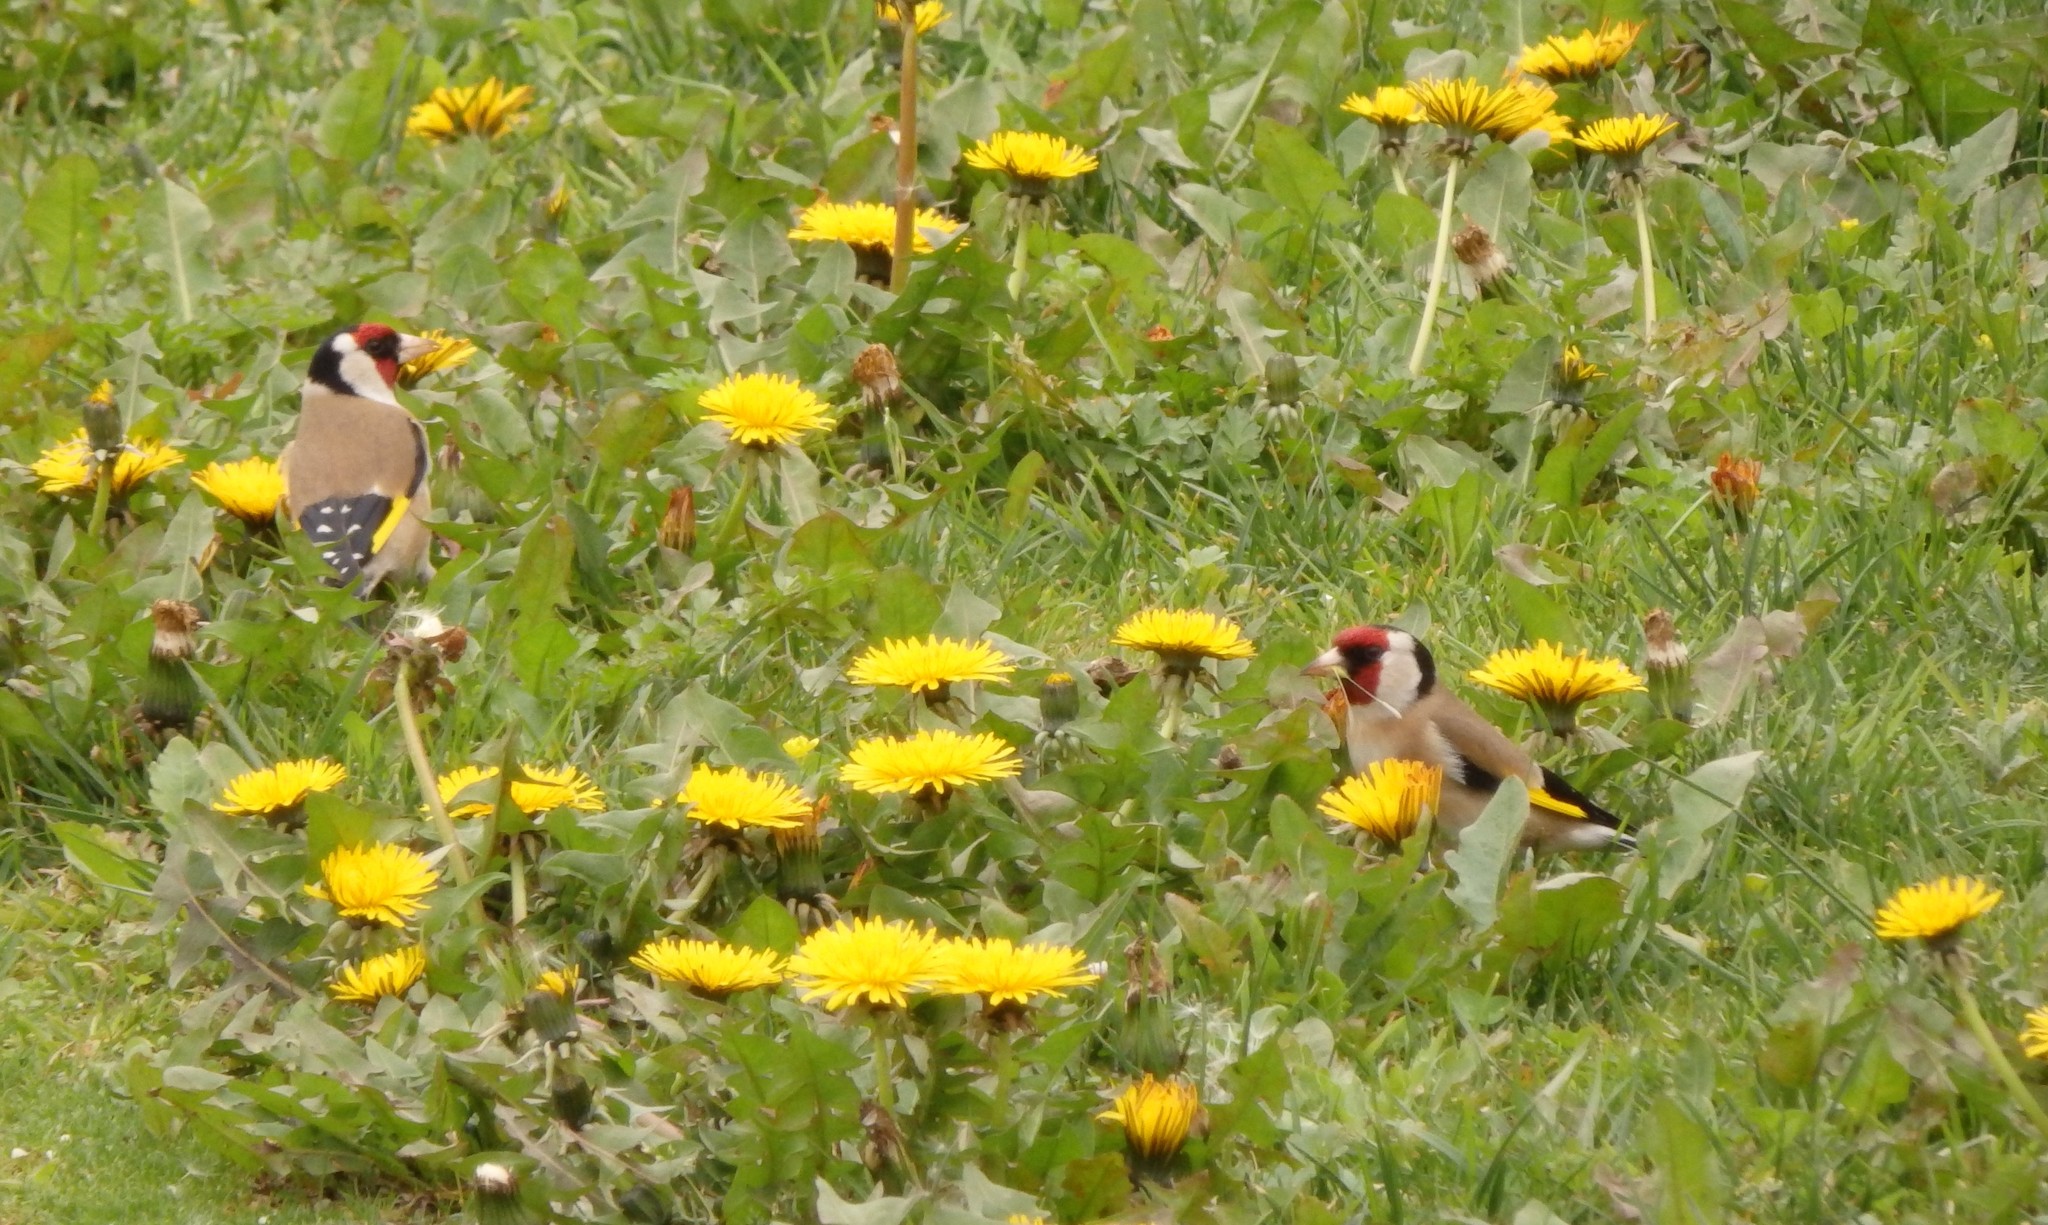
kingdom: Animalia
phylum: Chordata
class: Aves
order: Passeriformes
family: Fringillidae
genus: Carduelis
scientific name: Carduelis carduelis
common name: European goldfinch
